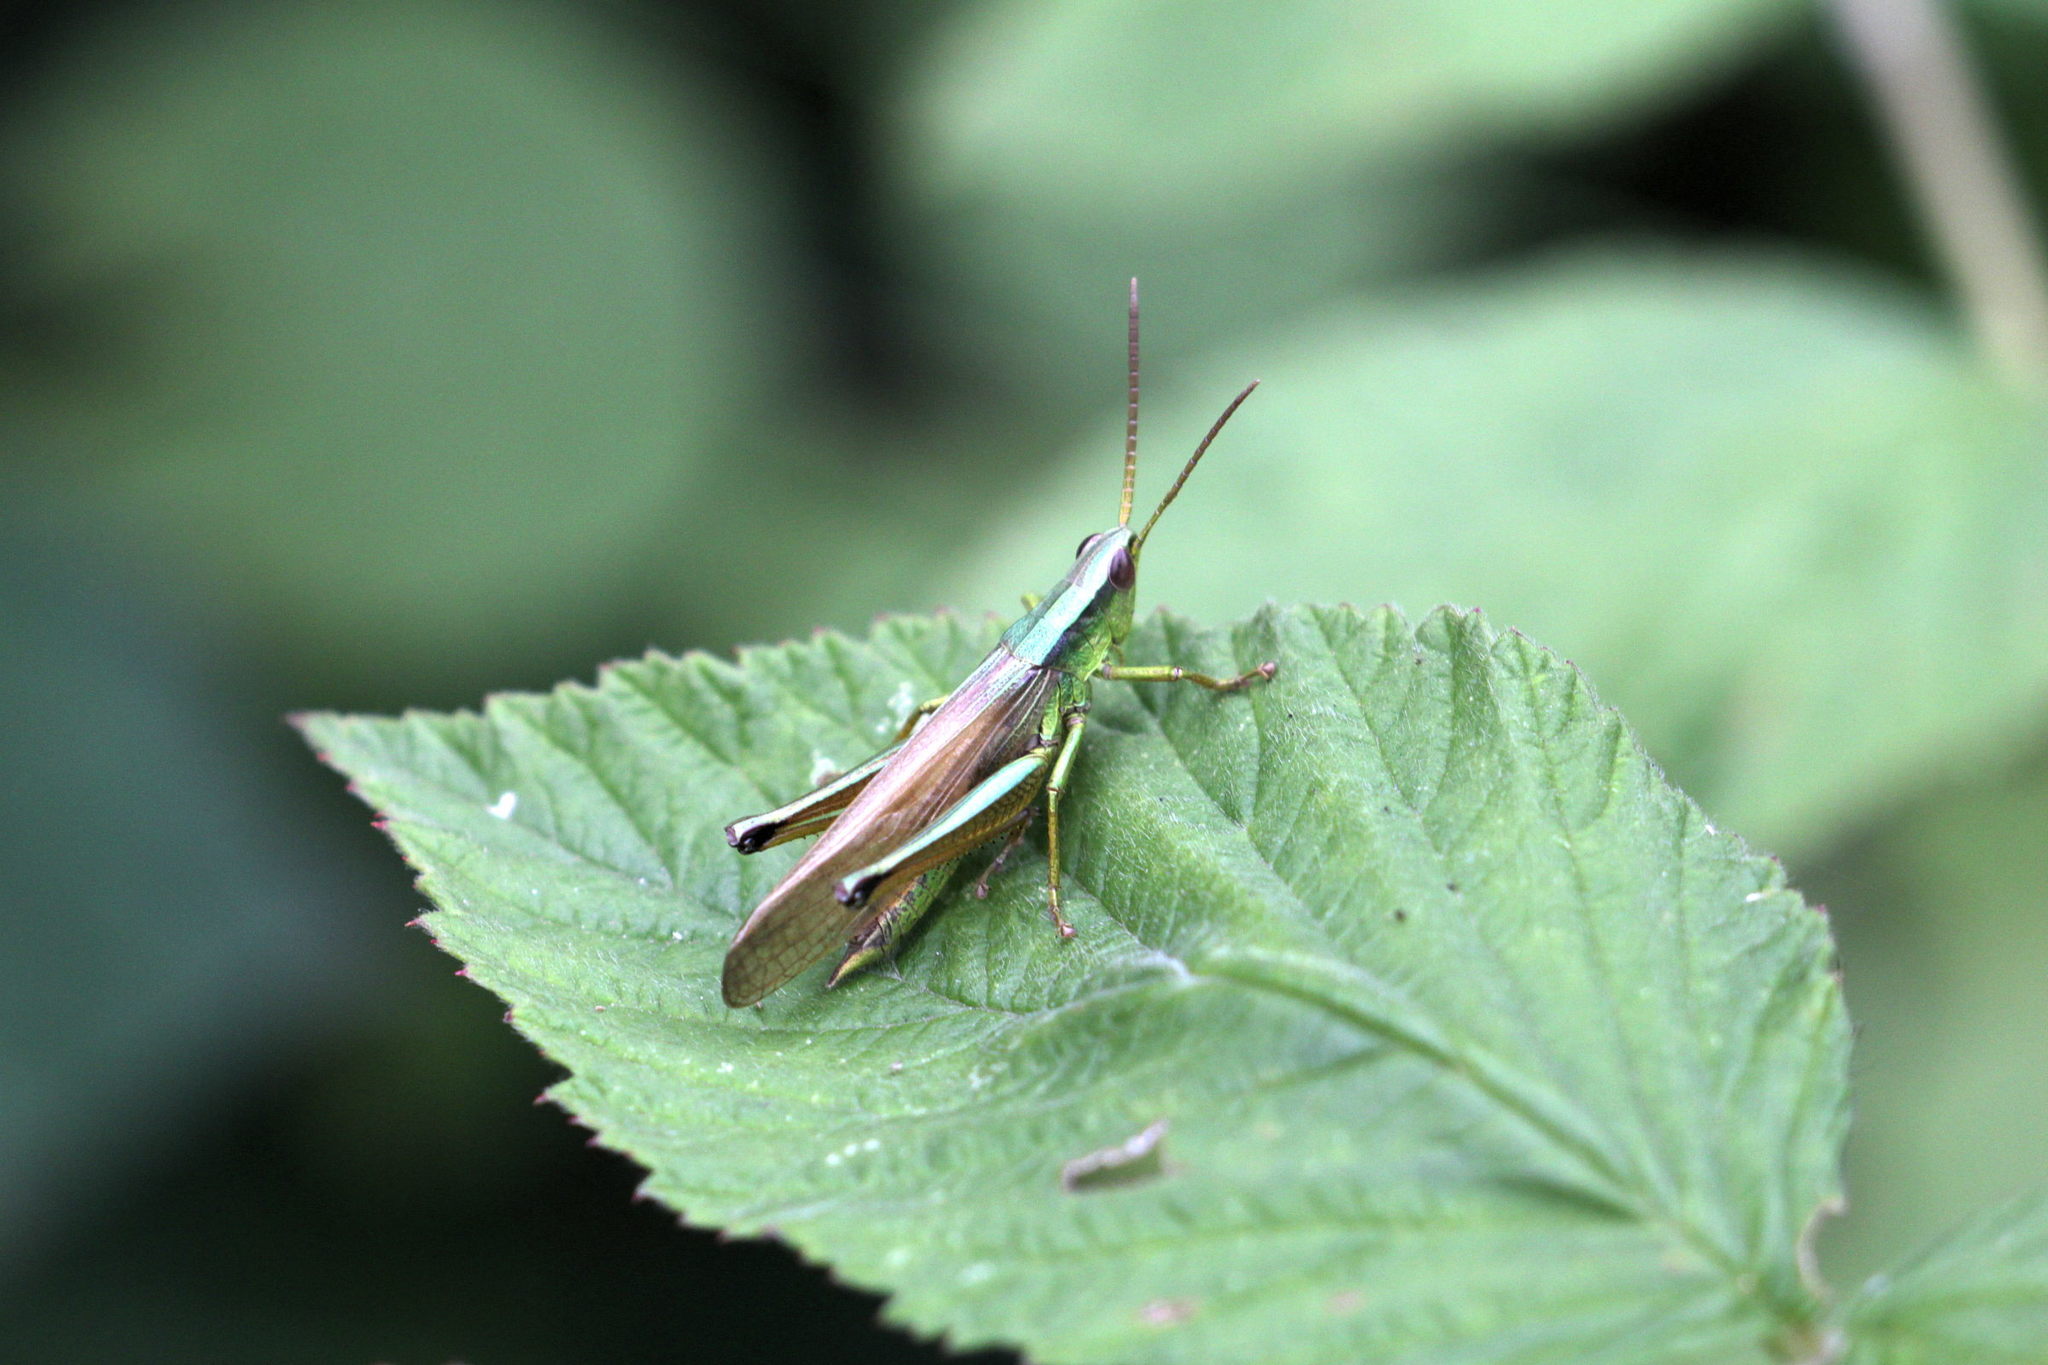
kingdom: Animalia
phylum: Arthropoda
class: Insecta
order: Orthoptera
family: Acrididae
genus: Chrysochraon
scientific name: Chrysochraon dispar
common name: Large gold grasshopper
